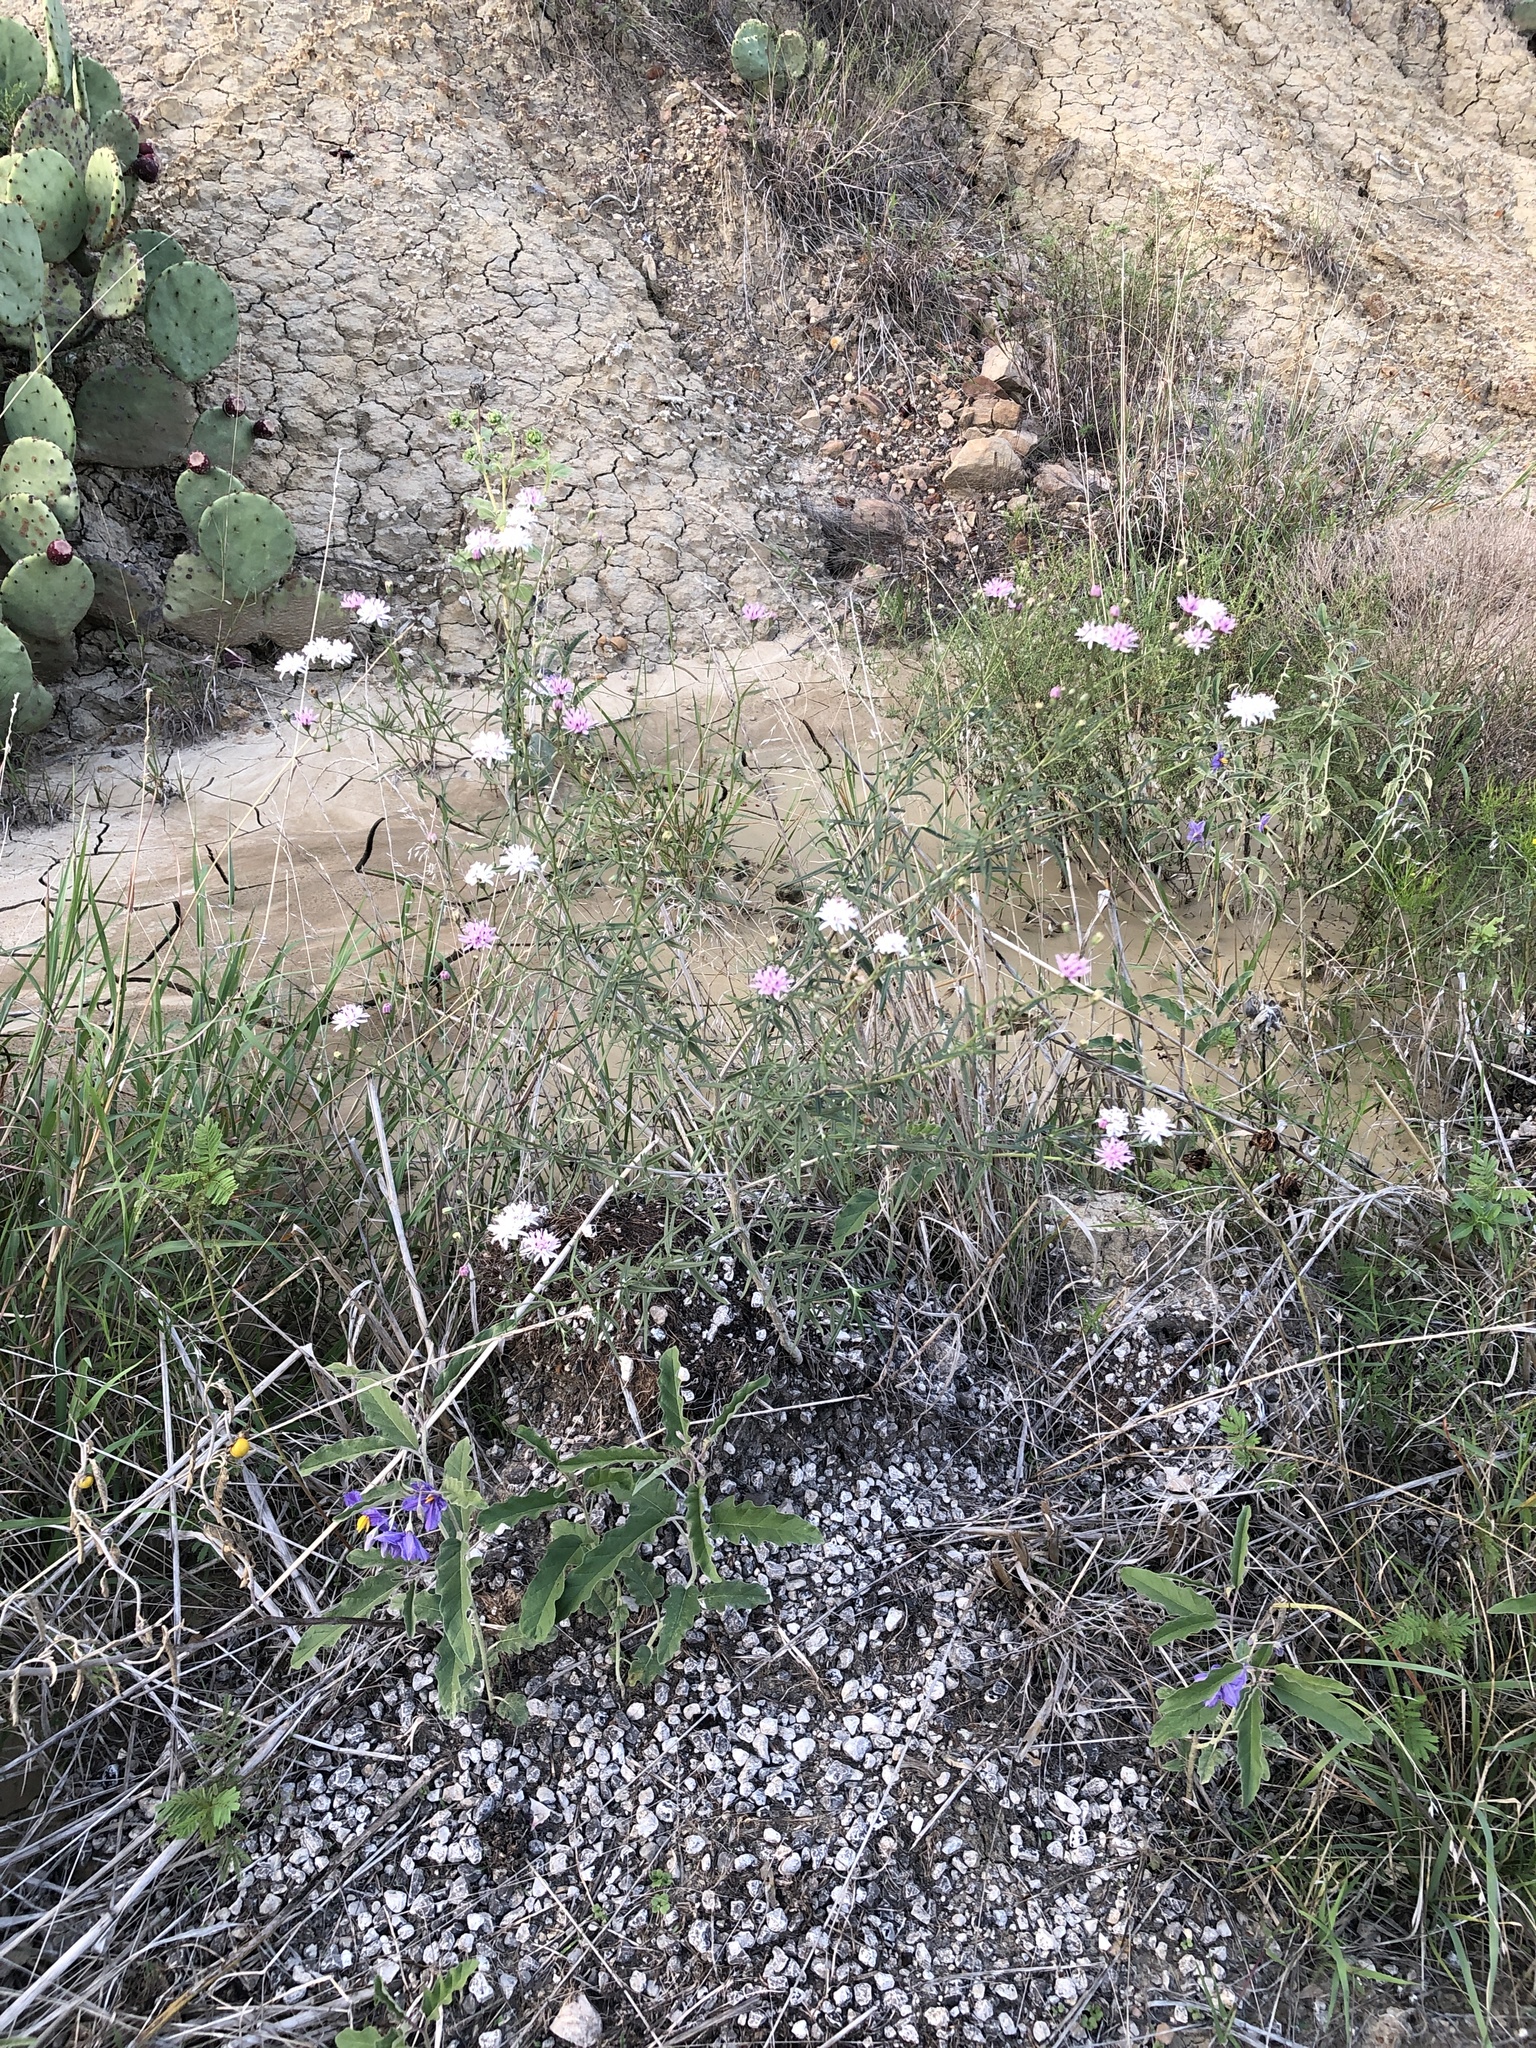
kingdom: Plantae
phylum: Tracheophyta
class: Magnoliopsida
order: Asterales
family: Asteraceae
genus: Palafoxia
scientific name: Palafoxia callosa
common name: Small palafox
